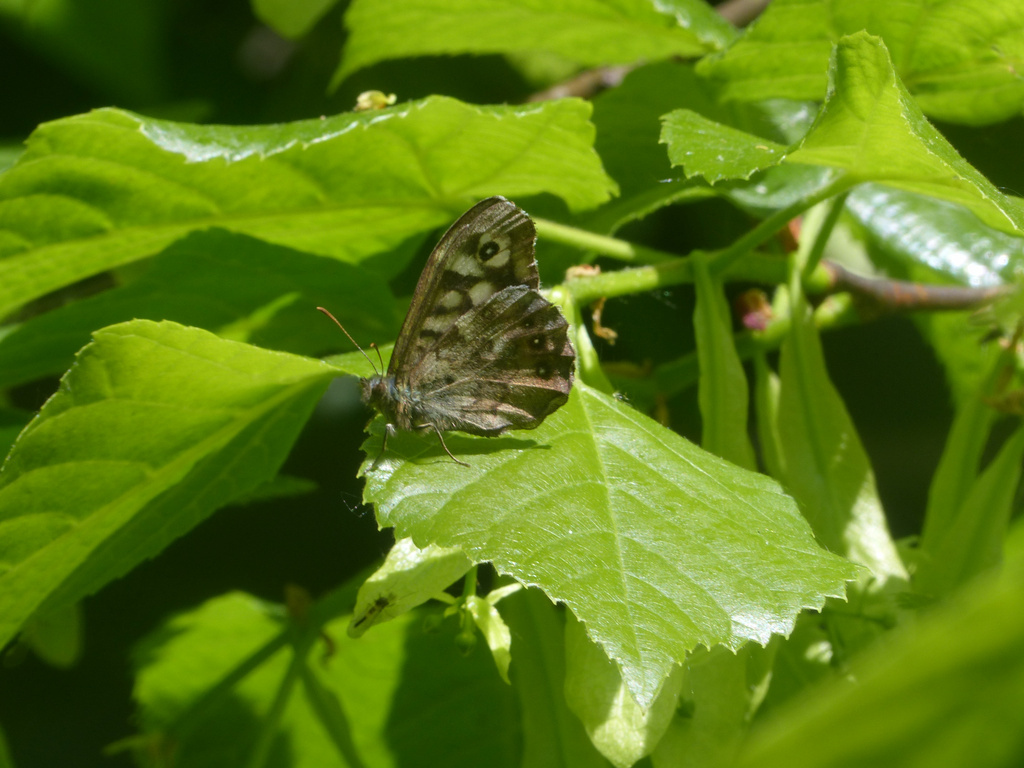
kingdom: Animalia
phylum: Arthropoda
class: Insecta
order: Lepidoptera
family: Nymphalidae
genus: Pararge
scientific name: Pararge aegeria
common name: Speckled wood
